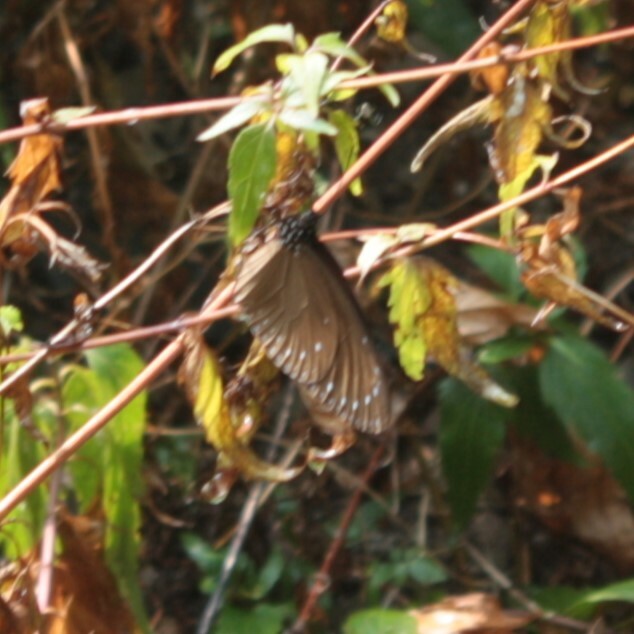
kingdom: Animalia
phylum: Arthropoda
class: Insecta
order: Lepidoptera
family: Nymphalidae
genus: Euploea
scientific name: Euploea tulliolus
